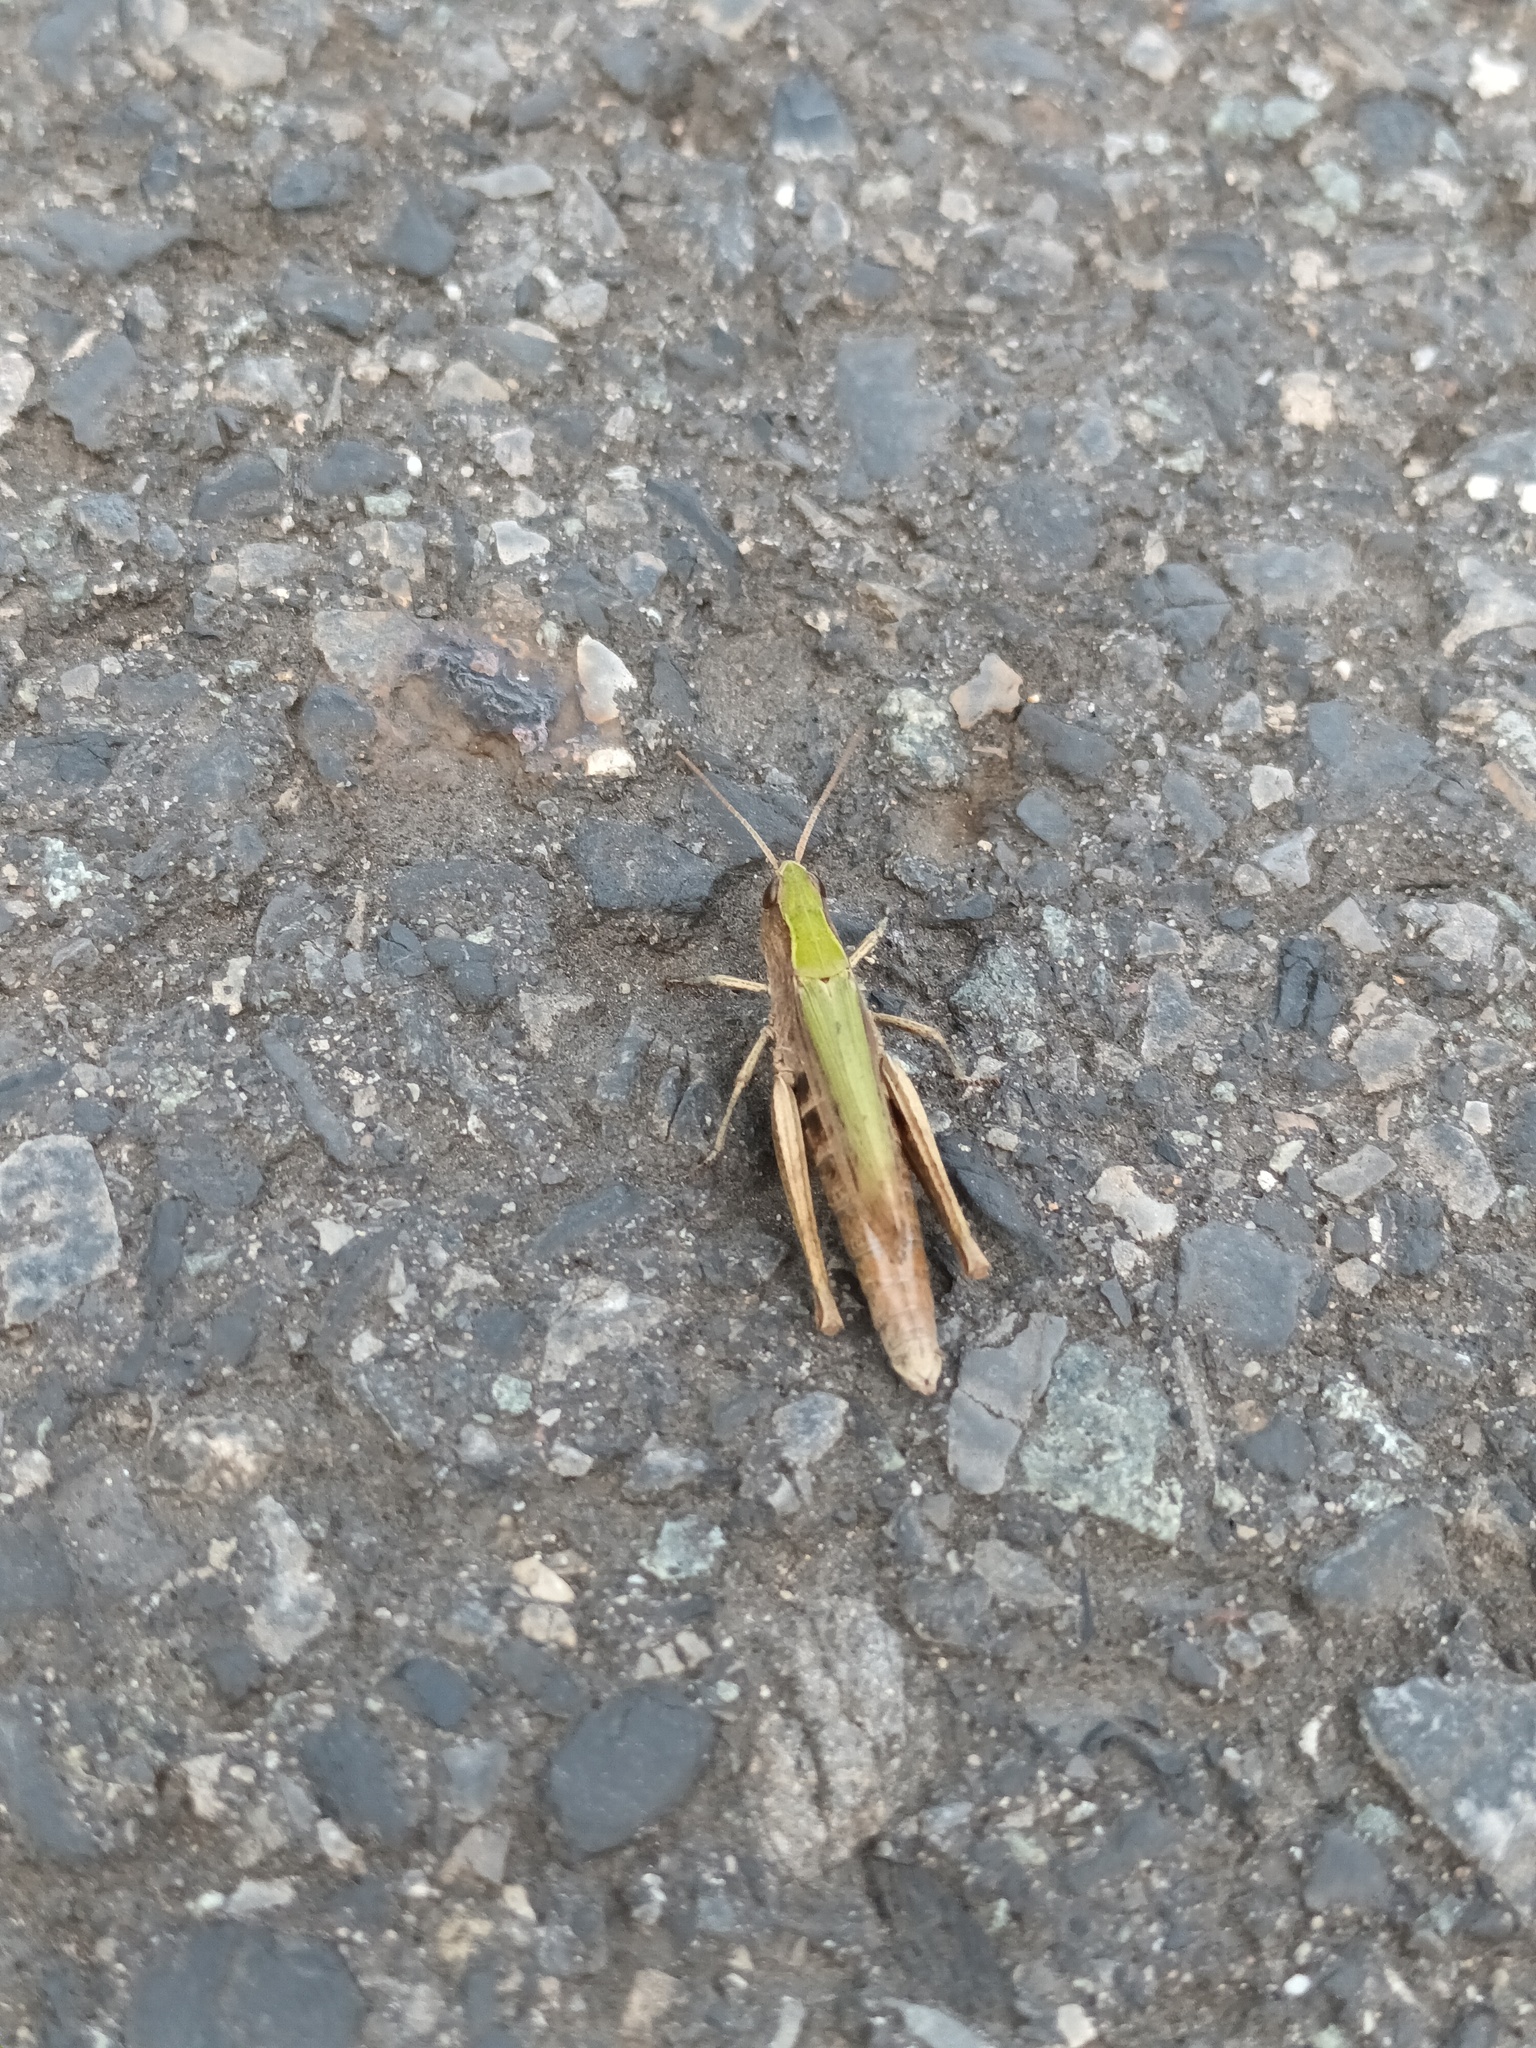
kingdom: Animalia
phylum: Arthropoda
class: Insecta
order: Orthoptera
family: Acrididae
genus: Chorthippus
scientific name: Chorthippus dorsatus
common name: Steppe grasshopper
